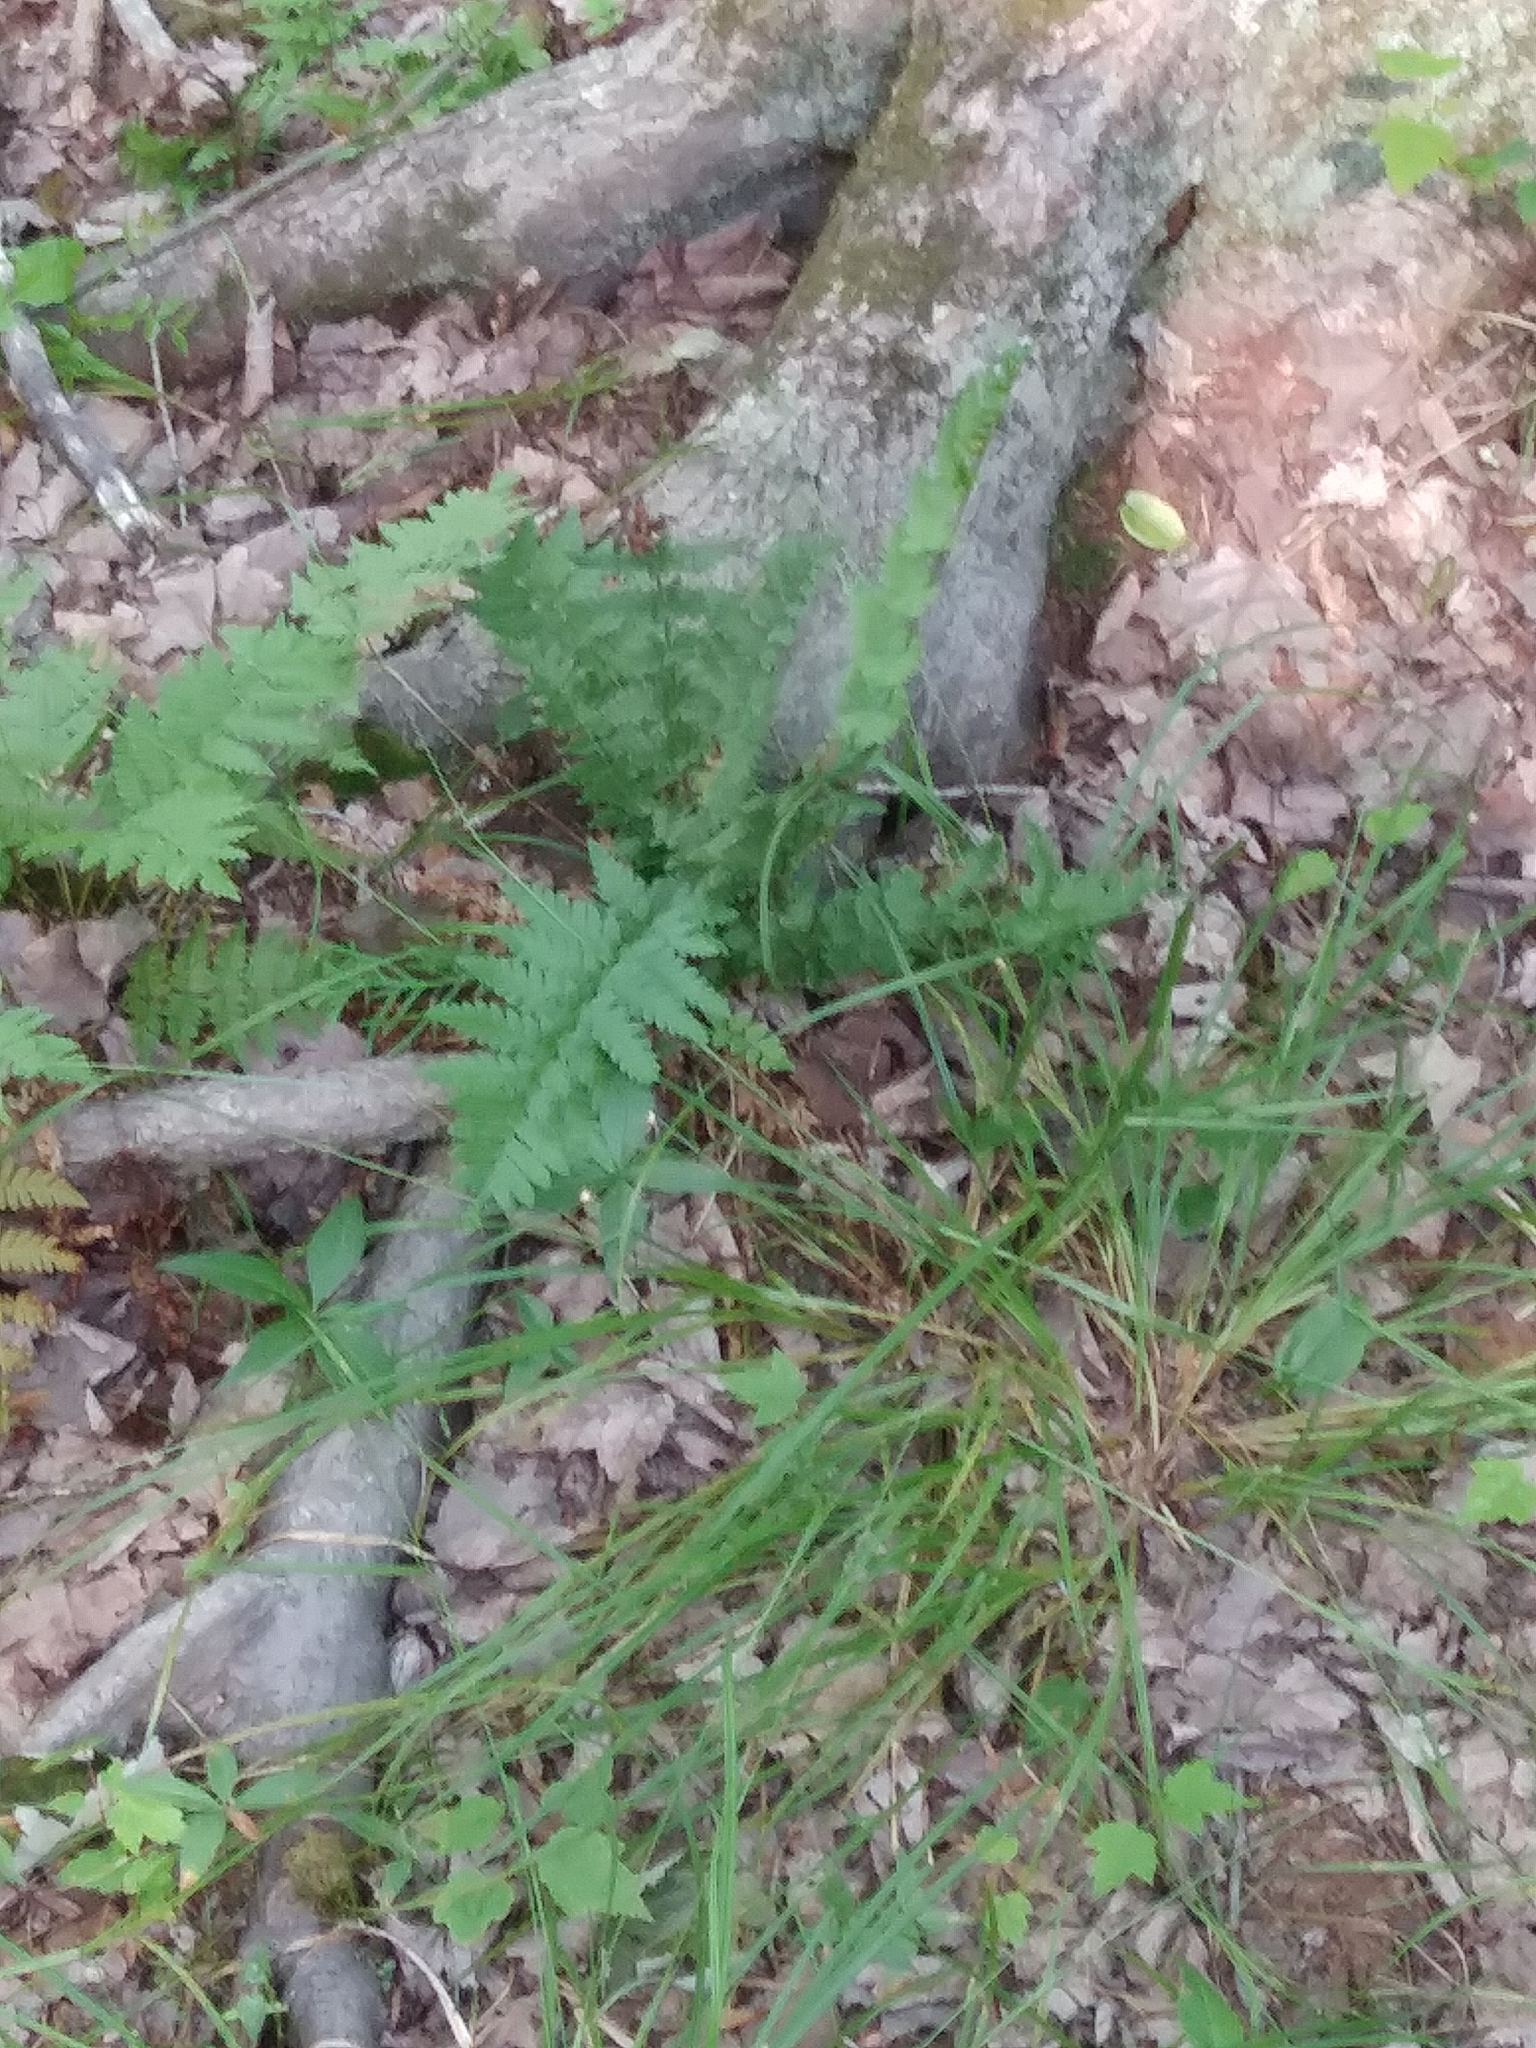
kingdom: Plantae
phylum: Tracheophyta
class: Polypodiopsida
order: Polypodiales
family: Dryopteridaceae
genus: Dryopteris
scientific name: Dryopteris cristata
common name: Crested wood fern
